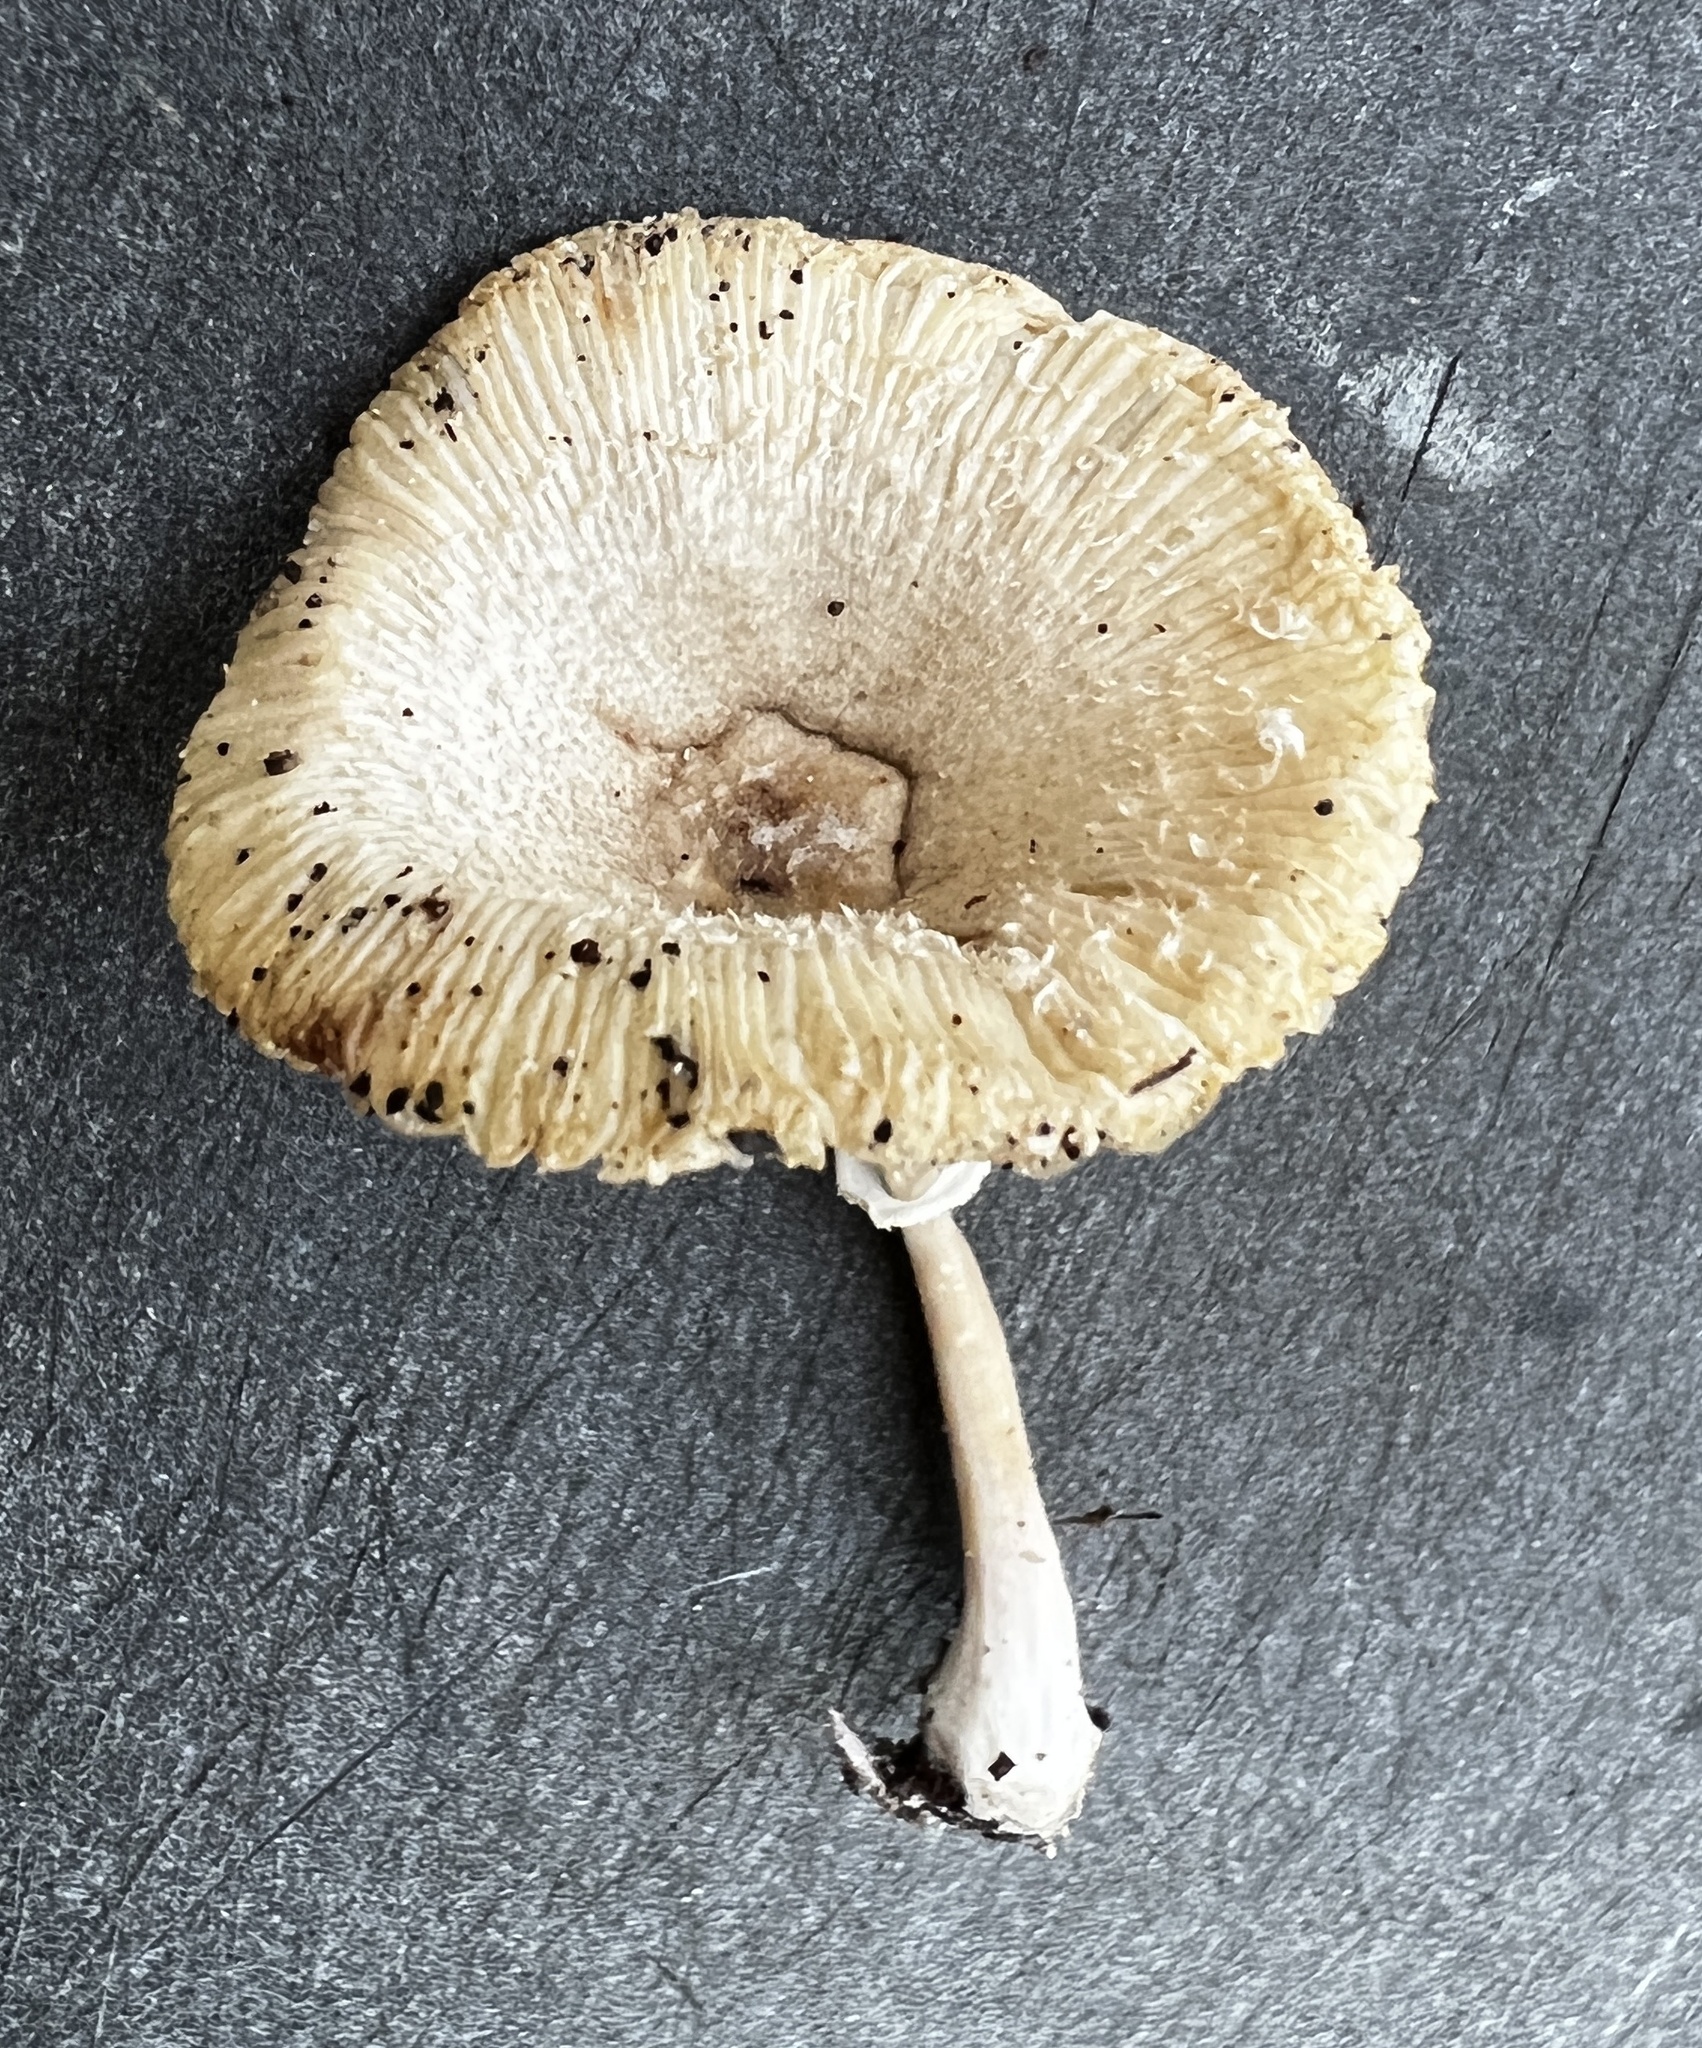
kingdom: Fungi
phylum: Basidiomycota
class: Agaricomycetes
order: Agaricales
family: Agaricaceae
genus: Leucocoprinus
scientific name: Leucocoprinus longistriatus
